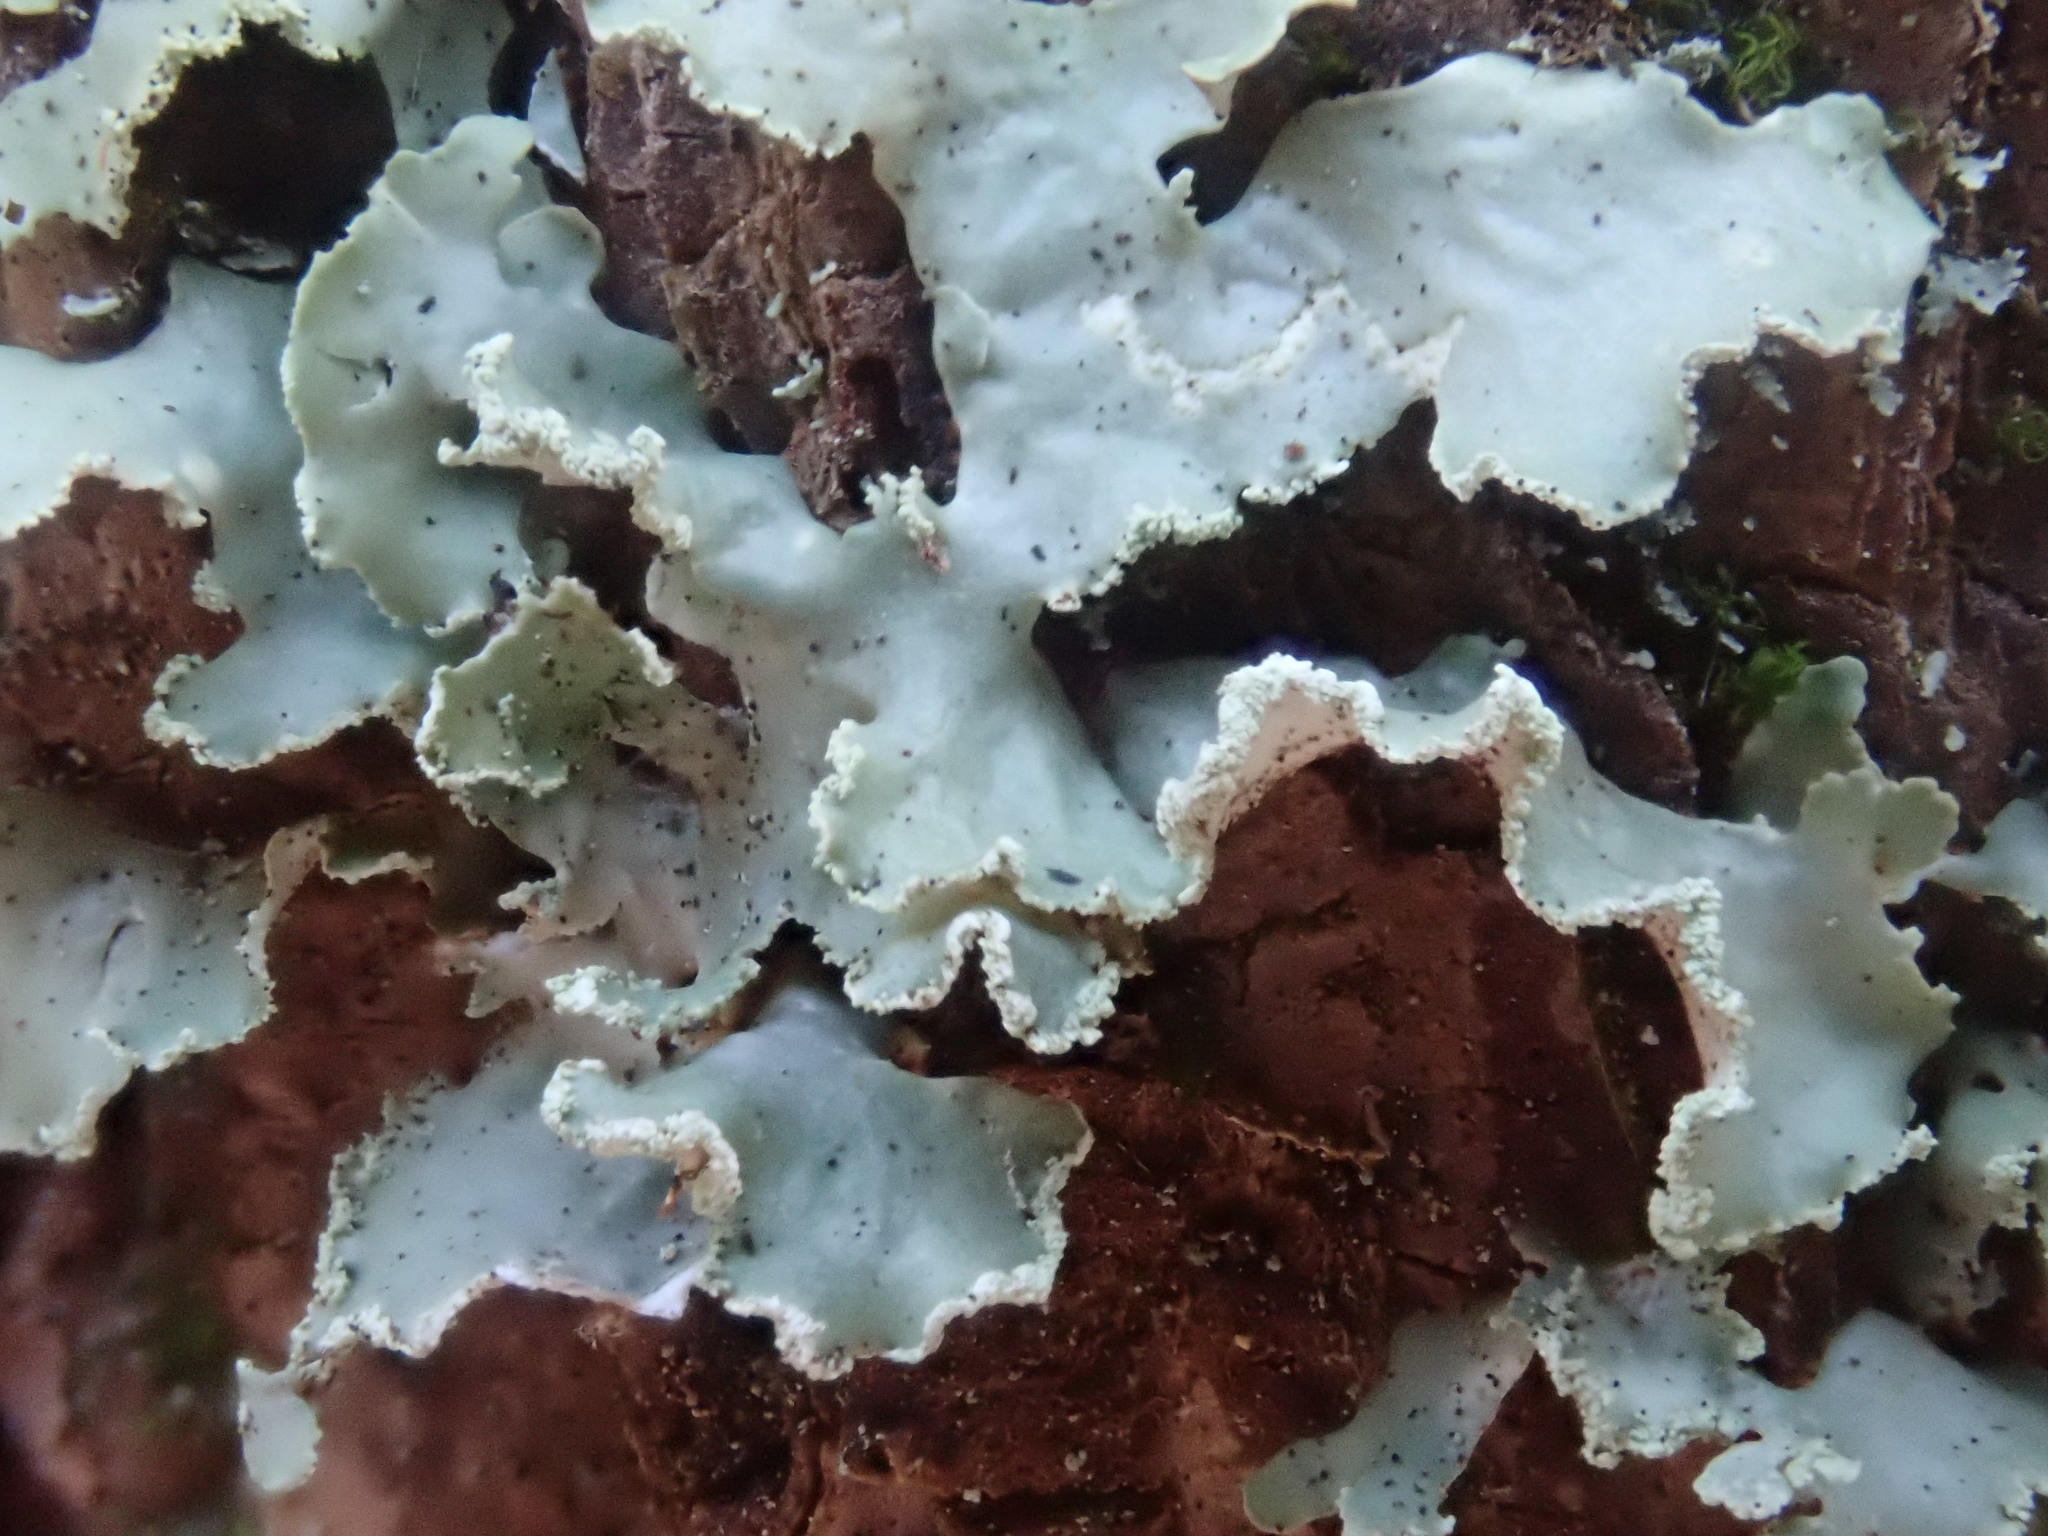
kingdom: Fungi
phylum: Ascomycota
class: Lecanoromycetes
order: Lecanorales
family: Parmeliaceae
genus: Usnocetraria
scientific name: Usnocetraria oakesiana
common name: Yellow ribbon lichen
